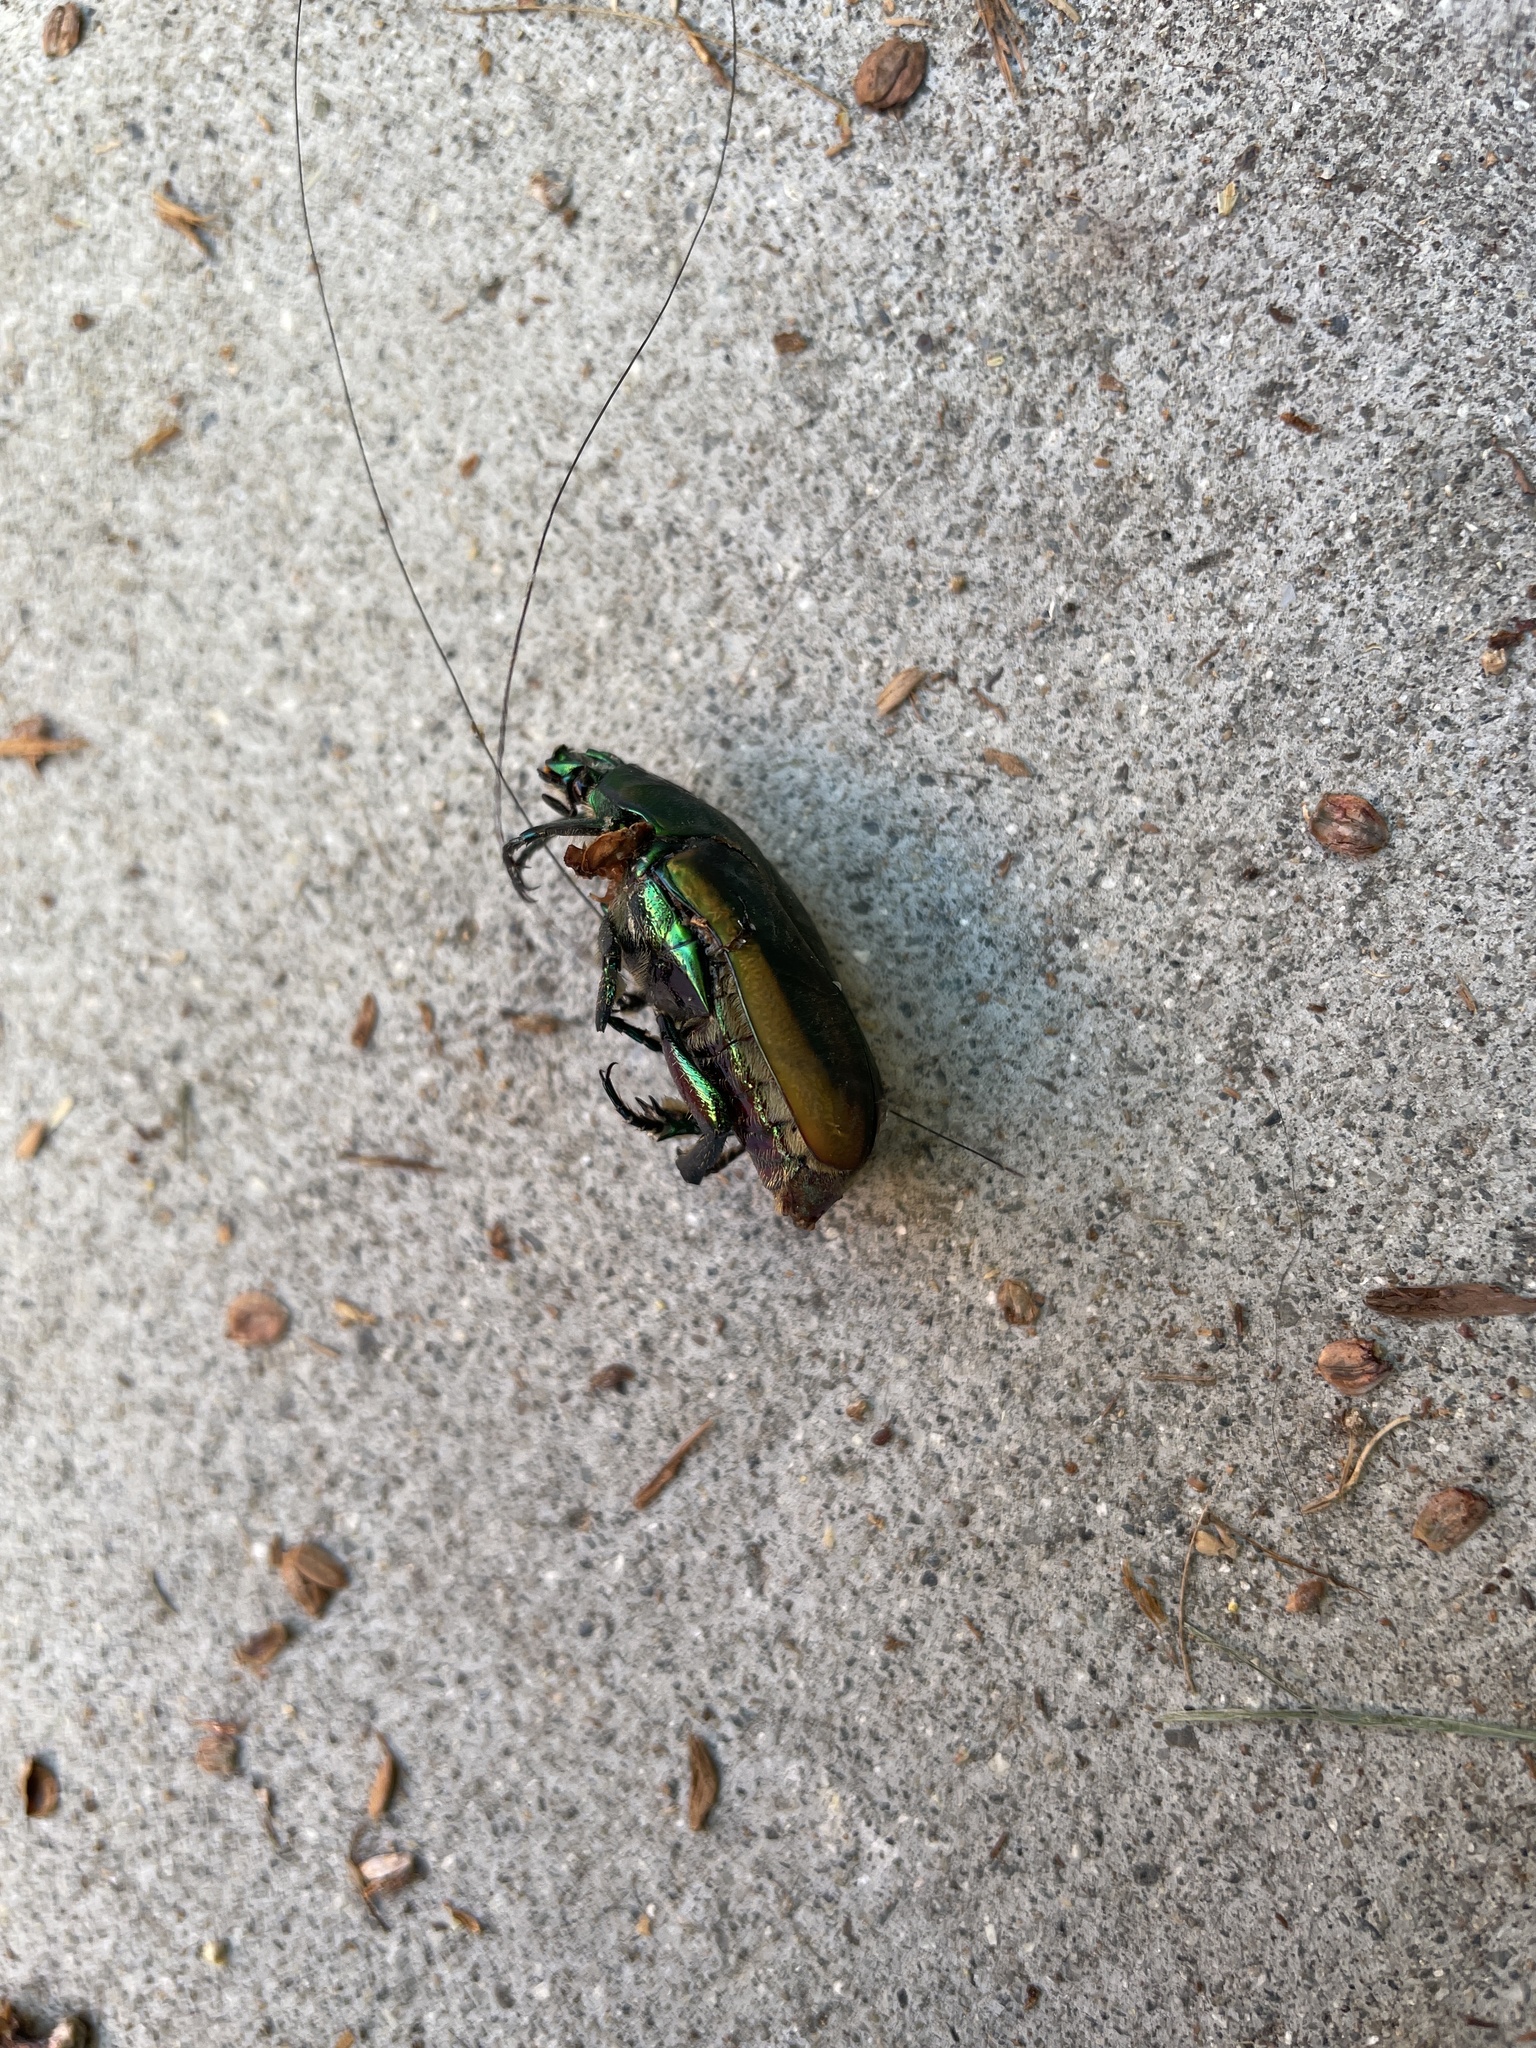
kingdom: Animalia
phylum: Arthropoda
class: Insecta
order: Coleoptera
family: Scarabaeidae
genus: Cotinis
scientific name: Cotinis mutabilis
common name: Figeater beetle
